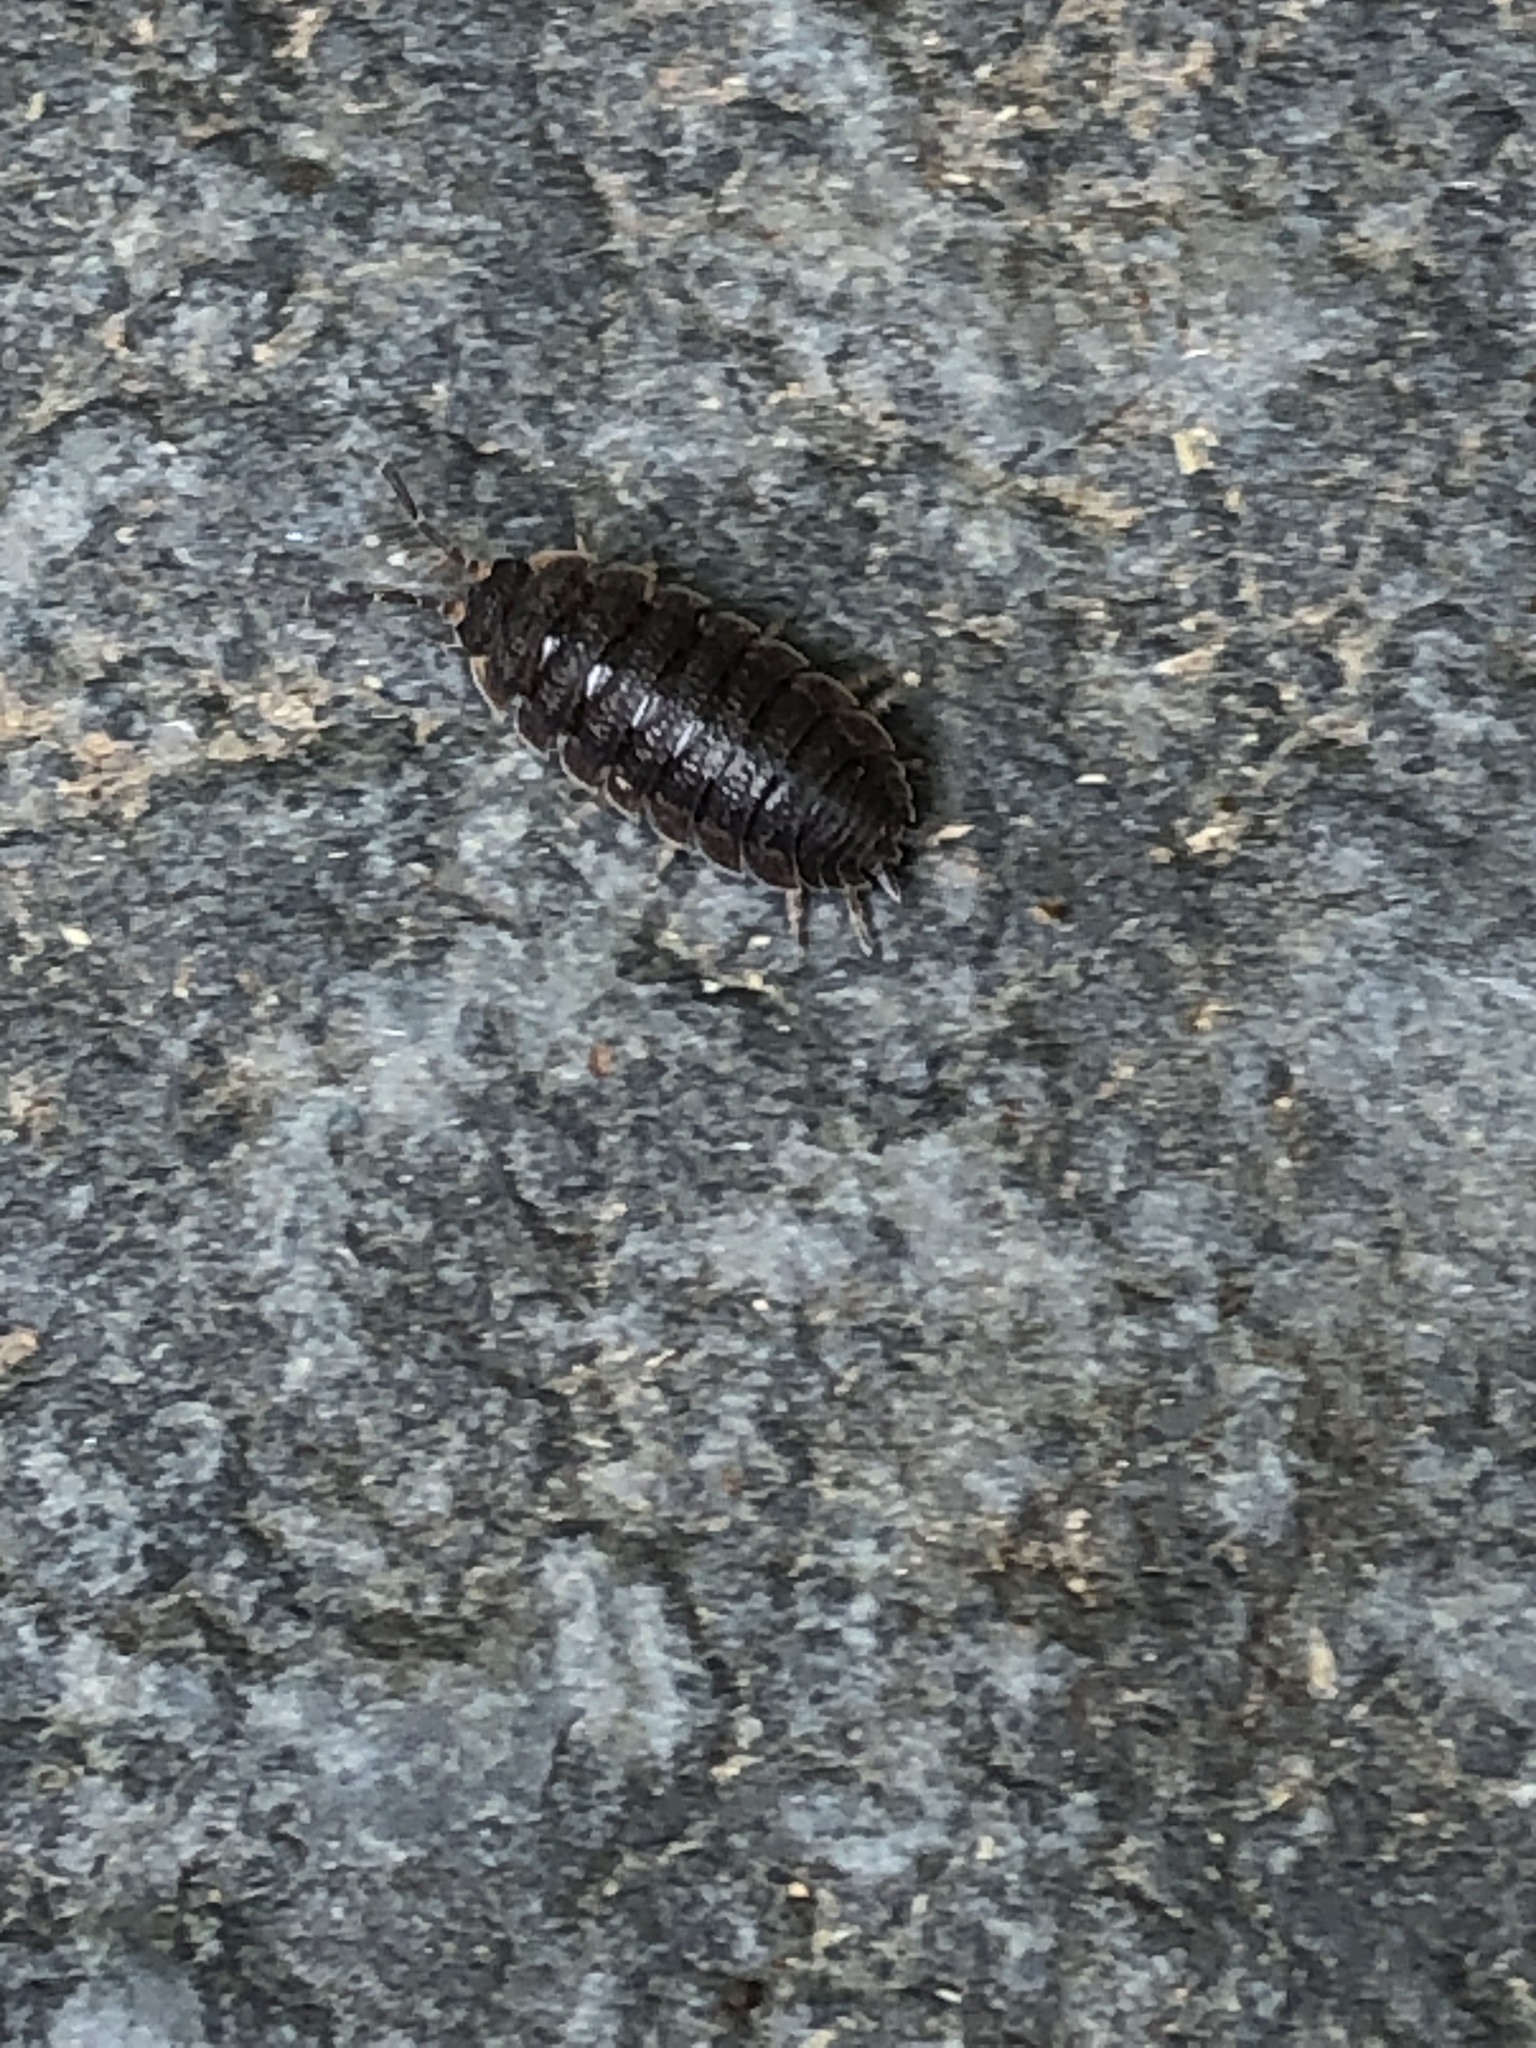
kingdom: Animalia
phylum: Arthropoda
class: Malacostraca
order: Isopoda
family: Porcellionidae
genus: Porcellio
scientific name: Porcellio scaber
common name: Common rough woodlouse
